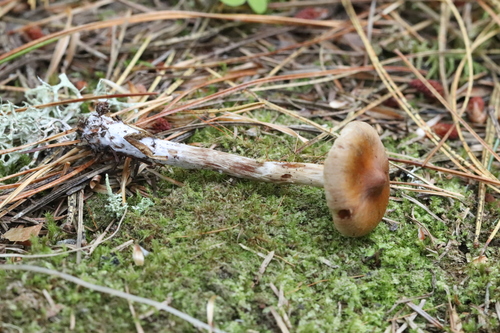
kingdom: Fungi
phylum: Basidiomycota
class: Agaricomycetes
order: Agaricales
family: Cortinariaceae
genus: Cortinarius
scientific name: Cortinarius
